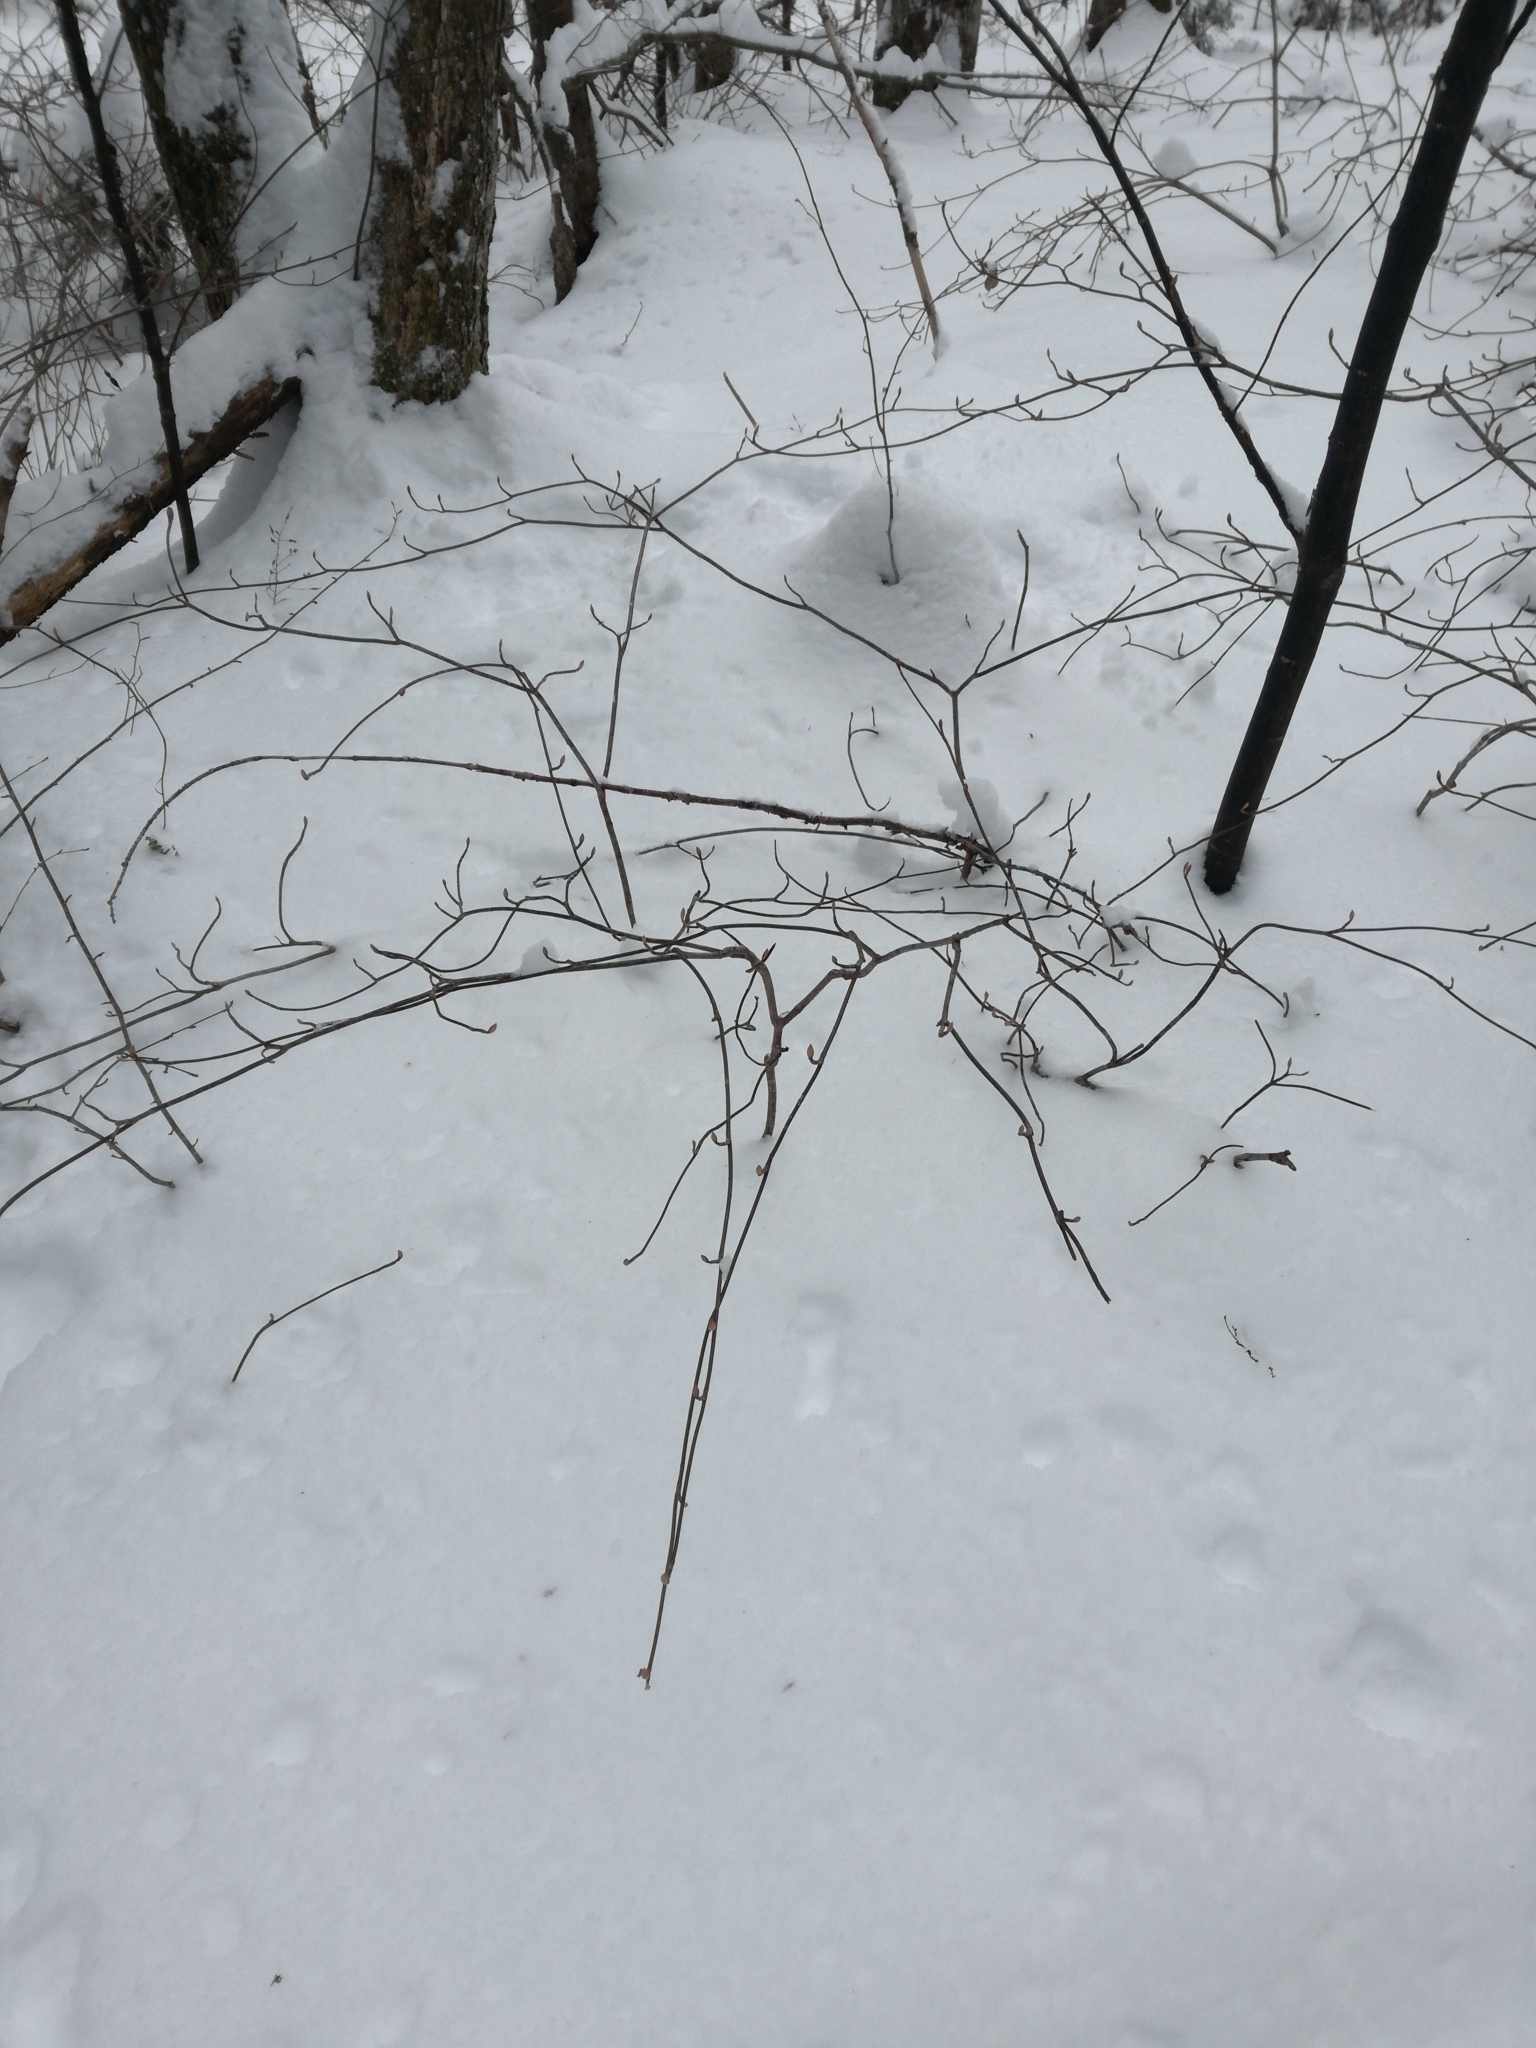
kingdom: Plantae
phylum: Tracheophyta
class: Magnoliopsida
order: Dipsacales
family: Viburnaceae
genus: Viburnum
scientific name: Viburnum lantanoides
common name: Hobblebush
